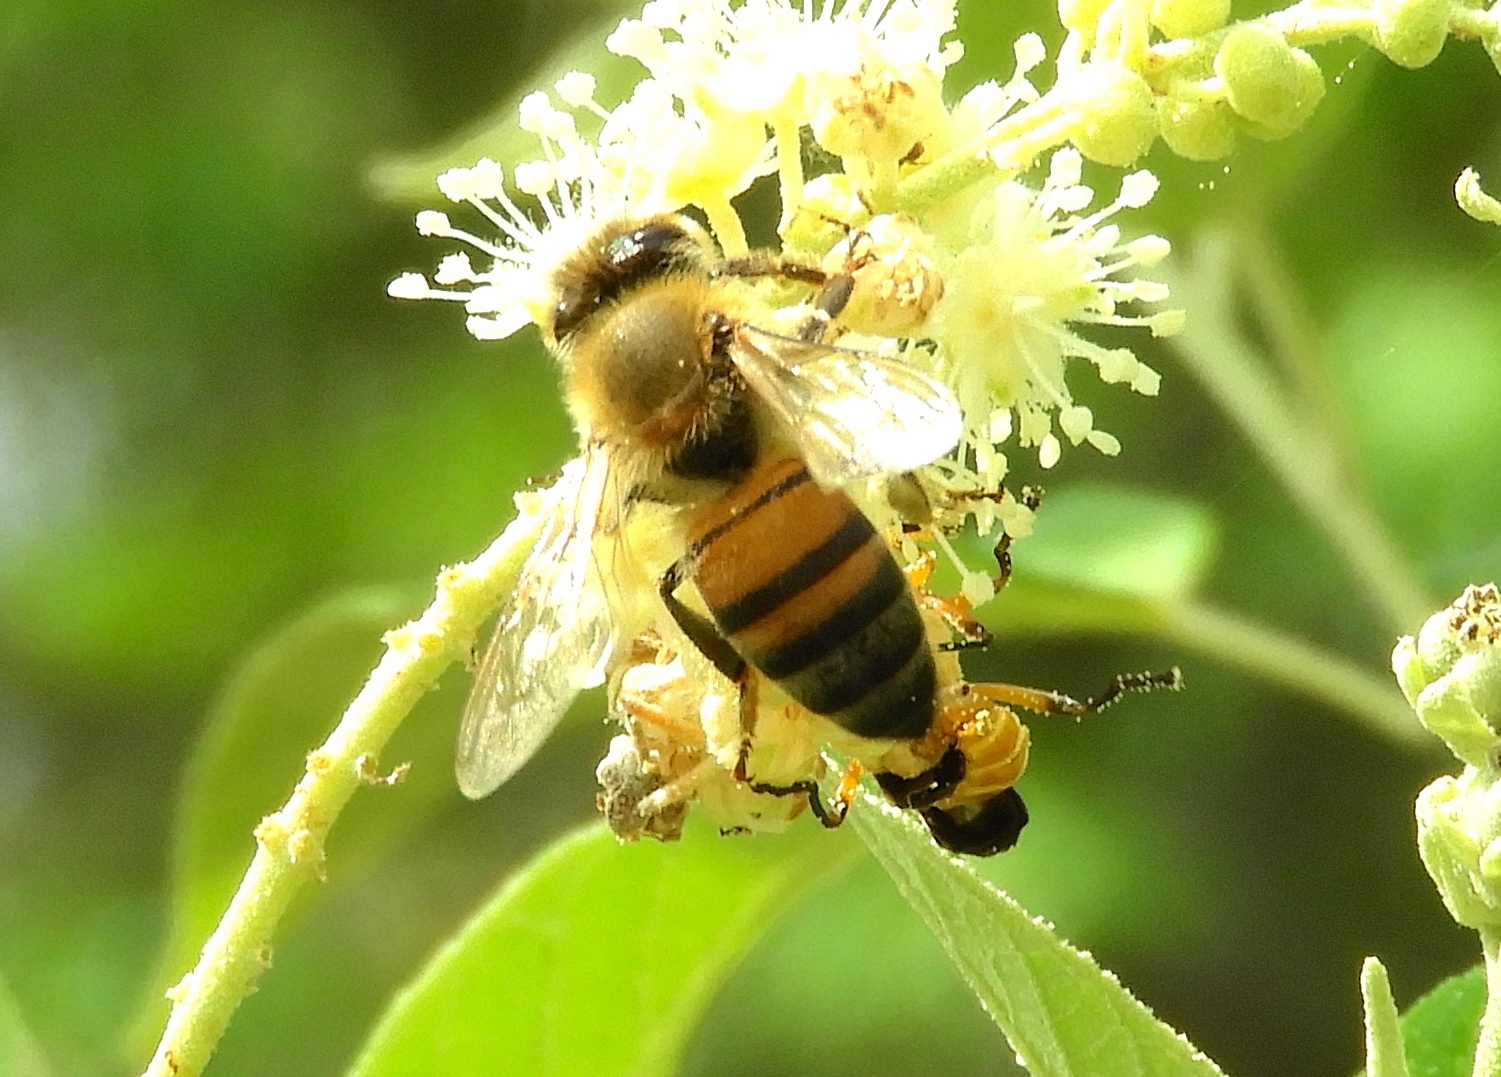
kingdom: Animalia
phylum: Arthropoda
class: Insecta
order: Hymenoptera
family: Apidae
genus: Apis
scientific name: Apis mellifera
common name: Honey bee
